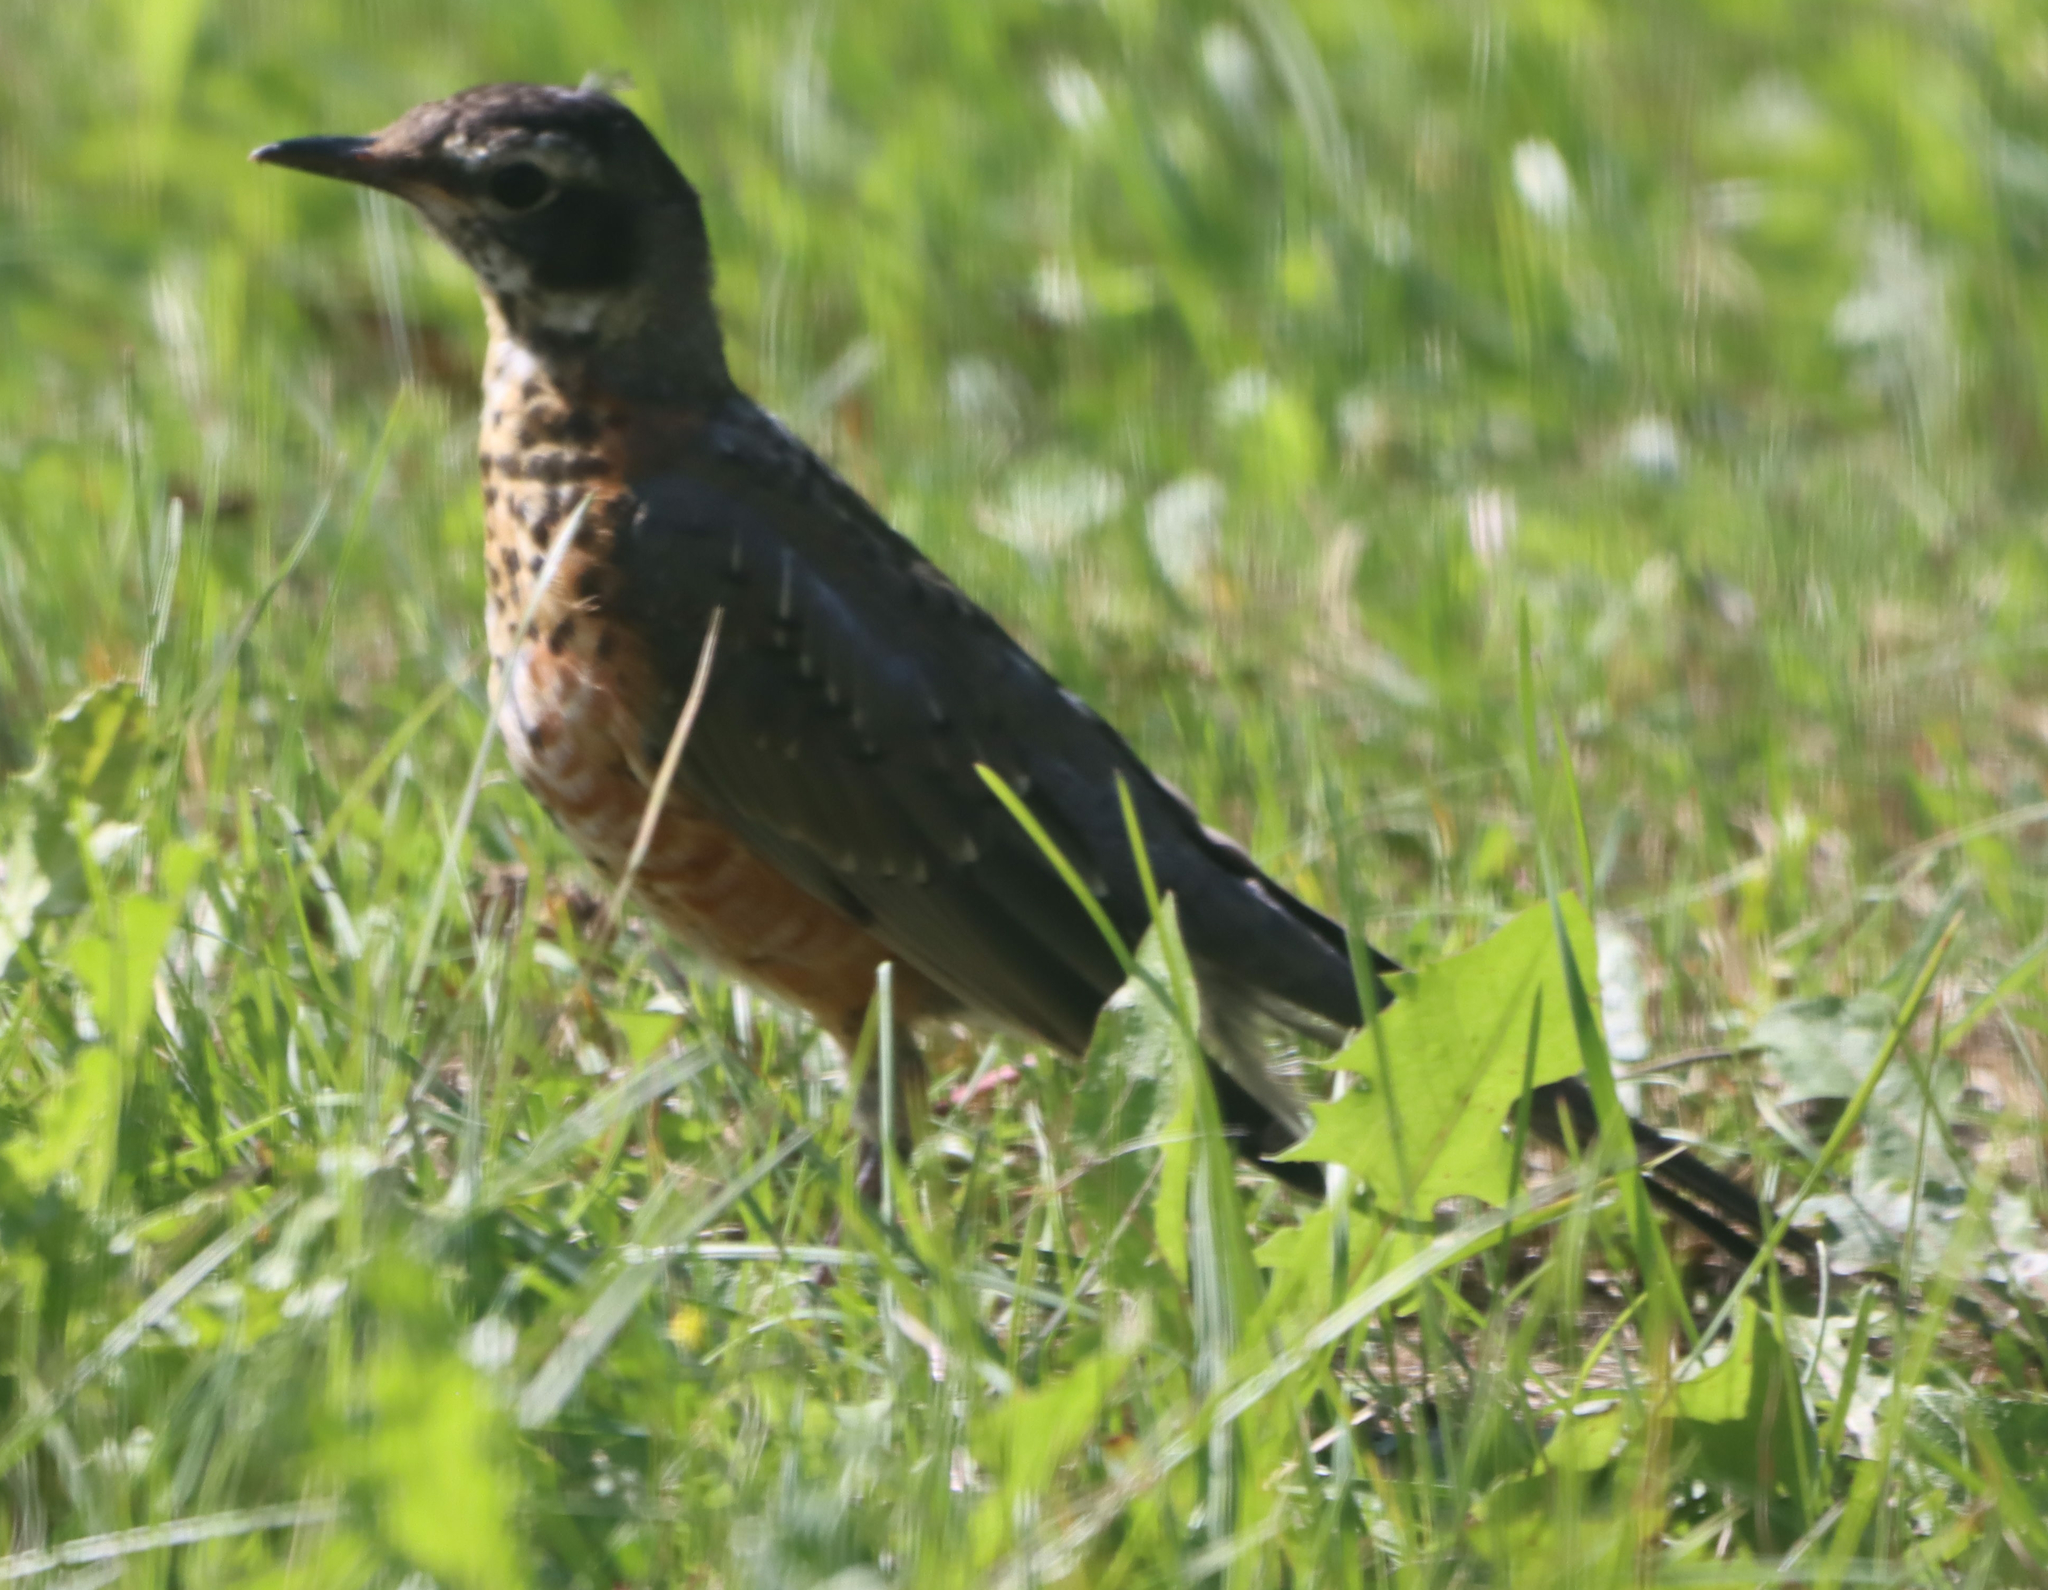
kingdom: Animalia
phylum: Chordata
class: Aves
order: Passeriformes
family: Turdidae
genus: Turdus
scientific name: Turdus migratorius
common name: American robin
